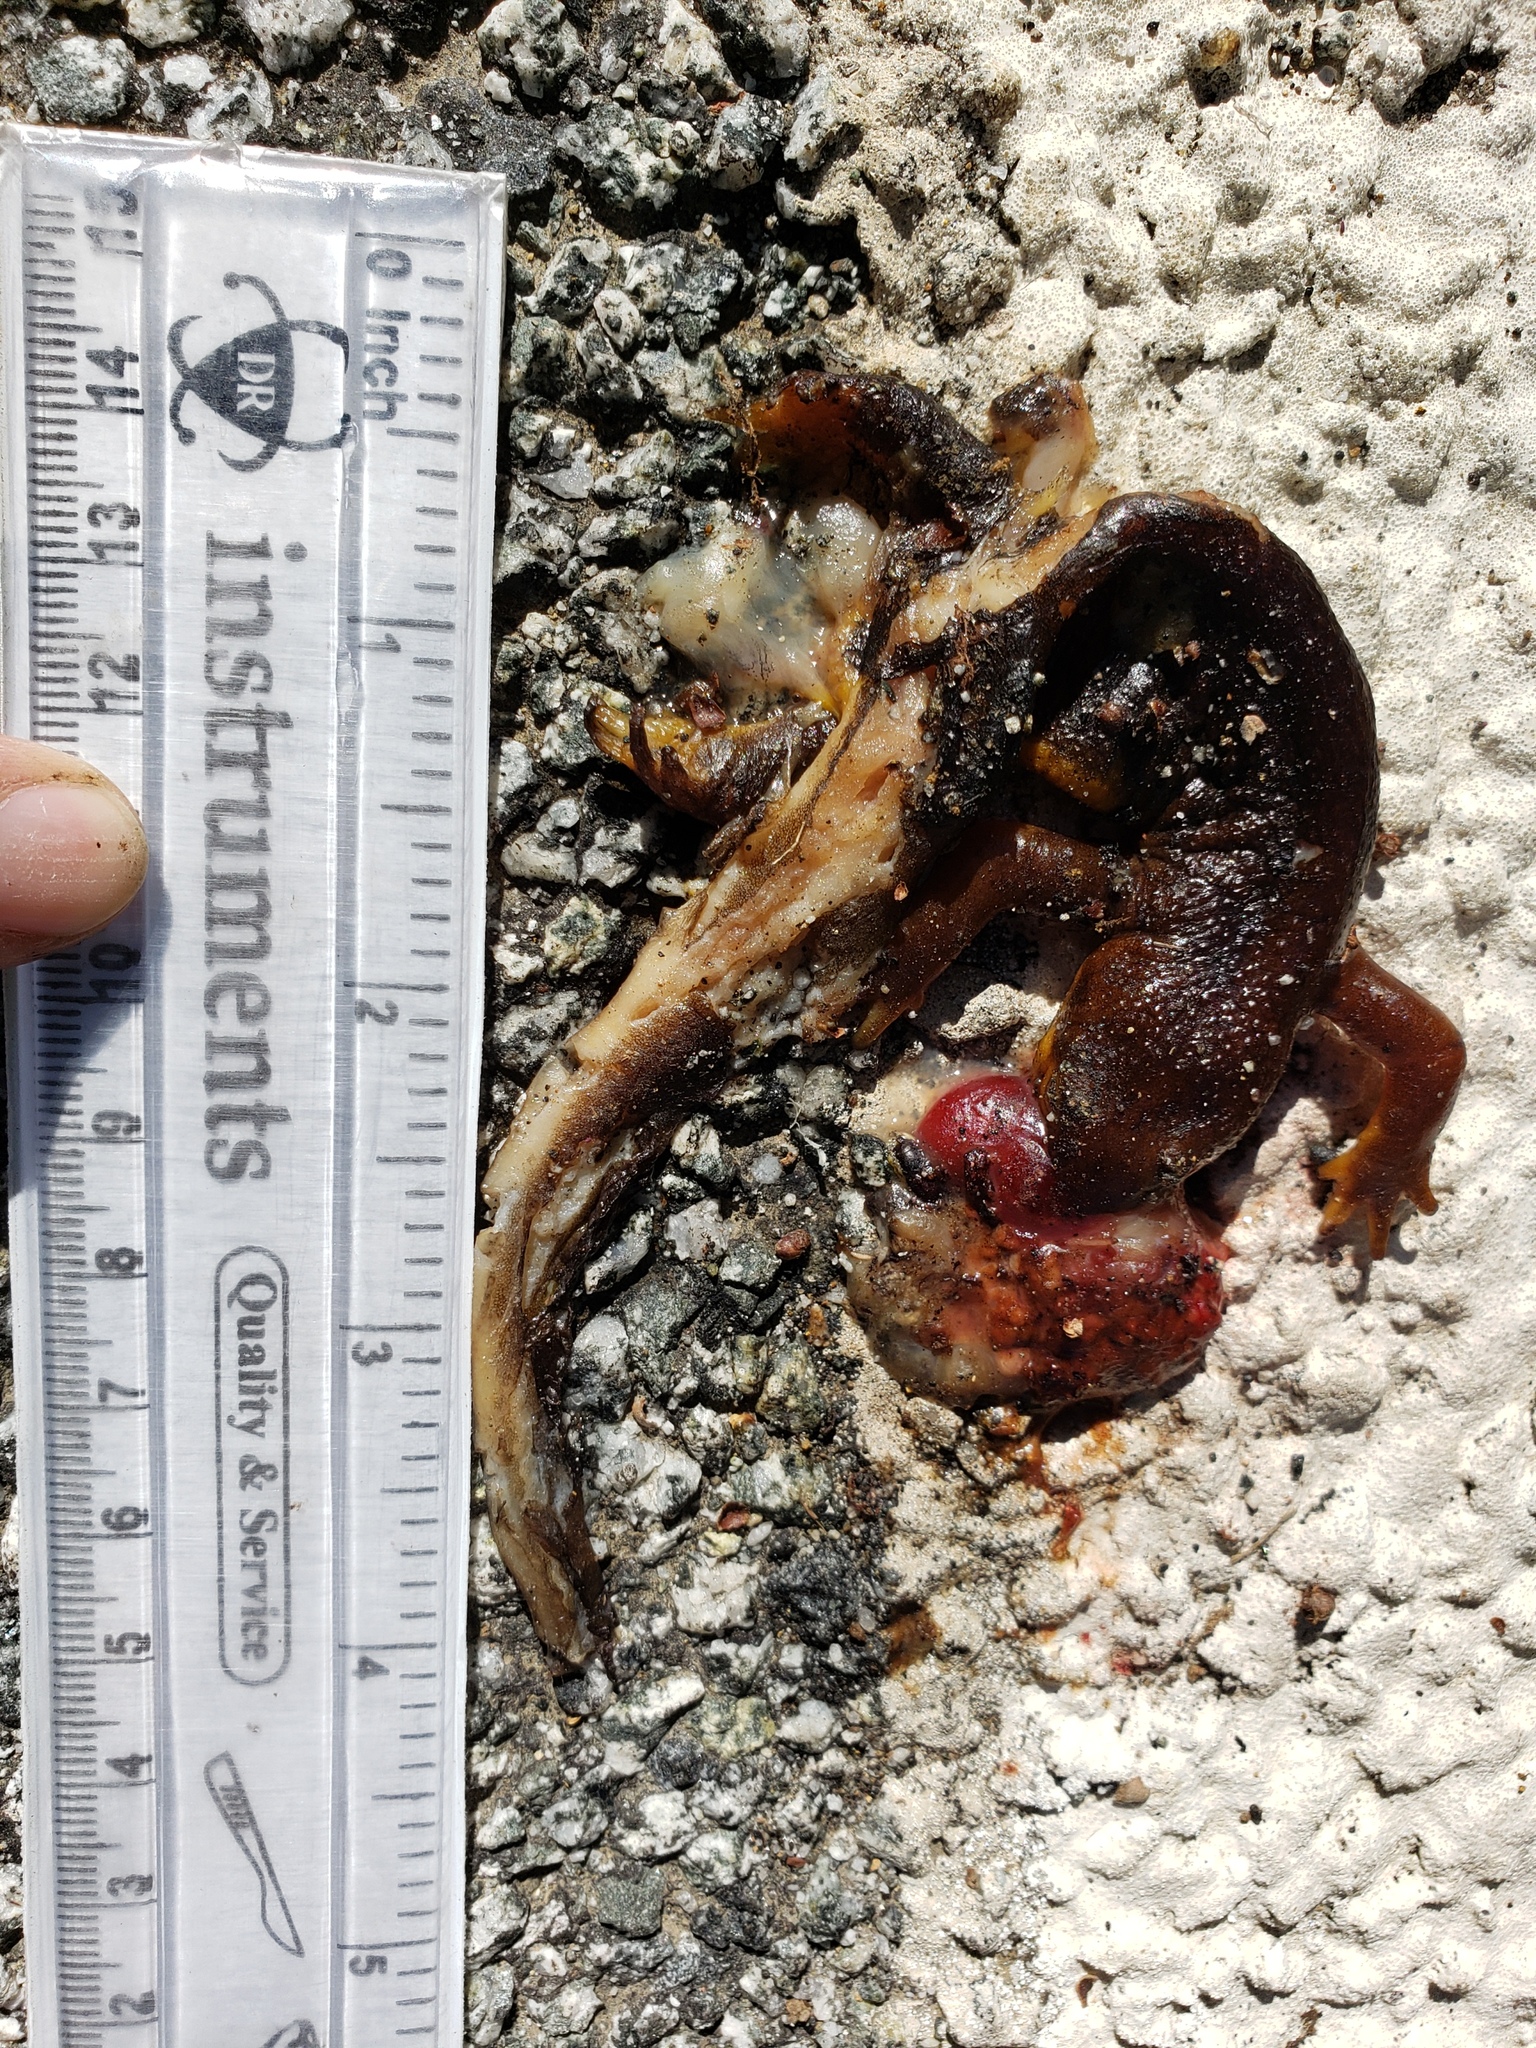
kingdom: Animalia
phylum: Chordata
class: Amphibia
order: Caudata
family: Salamandridae
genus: Taricha
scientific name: Taricha
